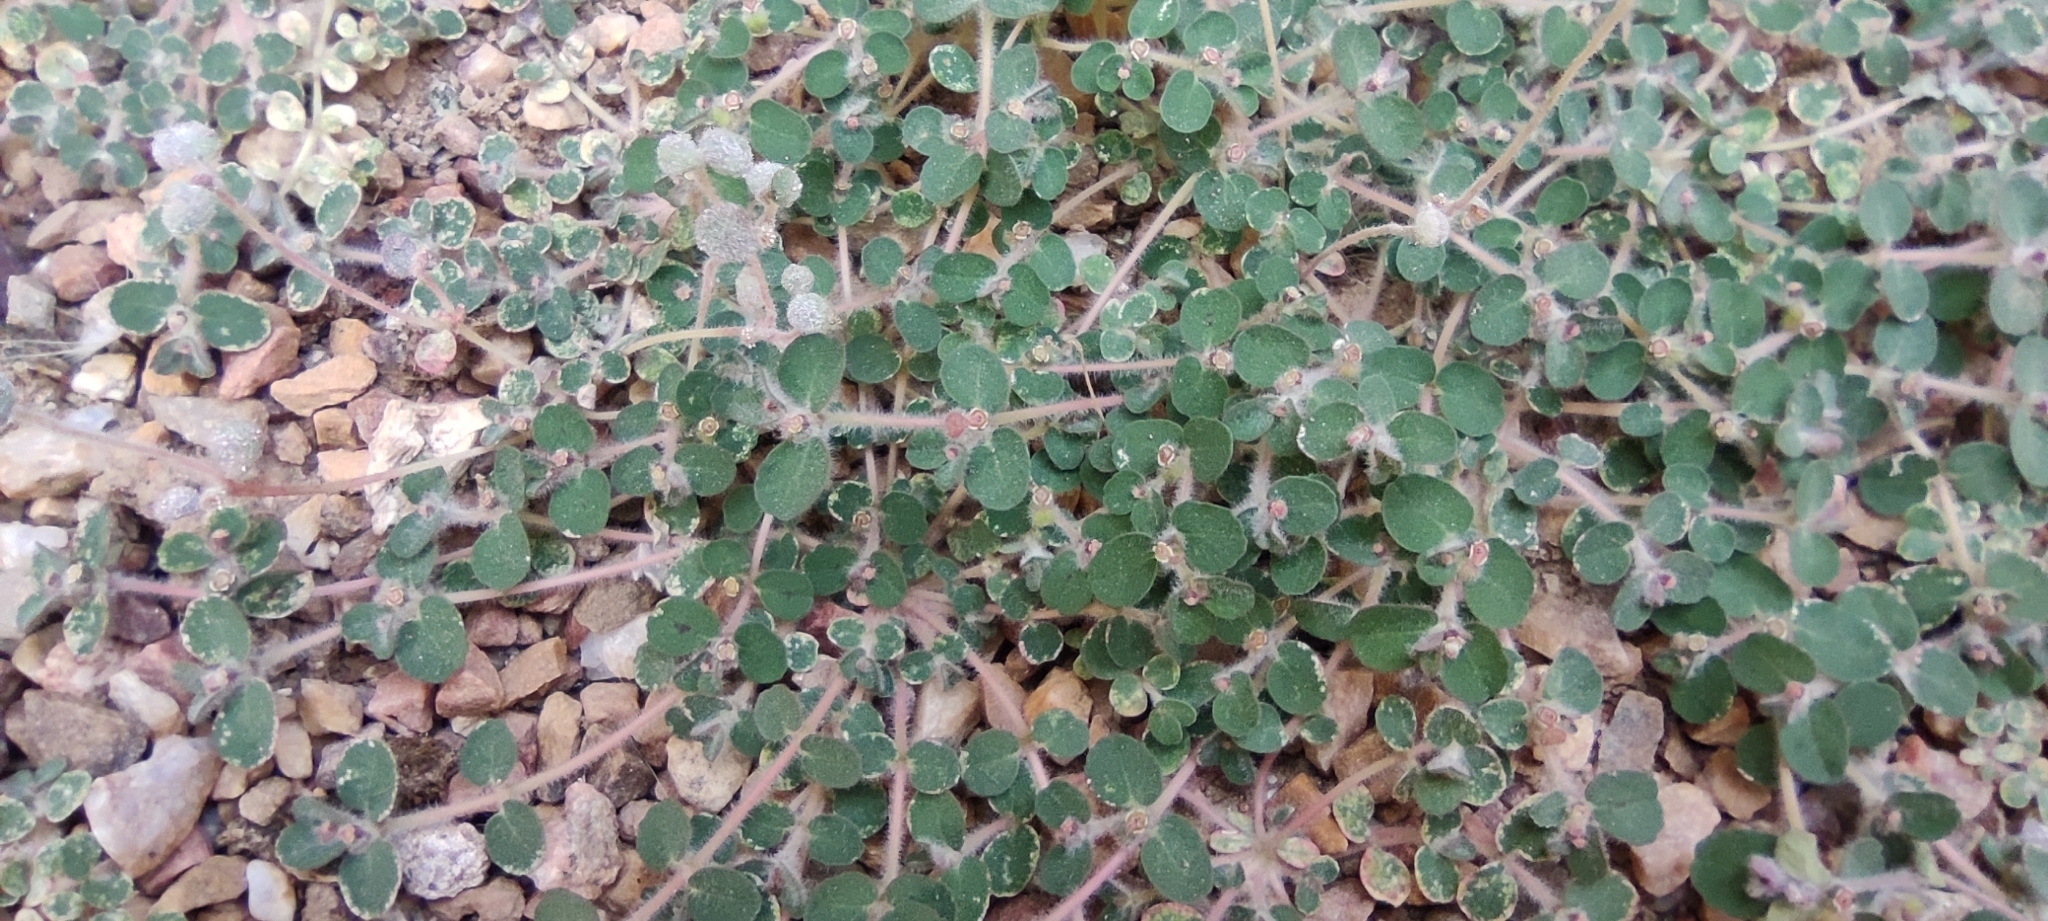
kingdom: Plantae
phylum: Tracheophyta
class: Magnoliopsida
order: Malpighiales
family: Euphorbiaceae
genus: Euphorbia
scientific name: Euphorbia chamaesyce
